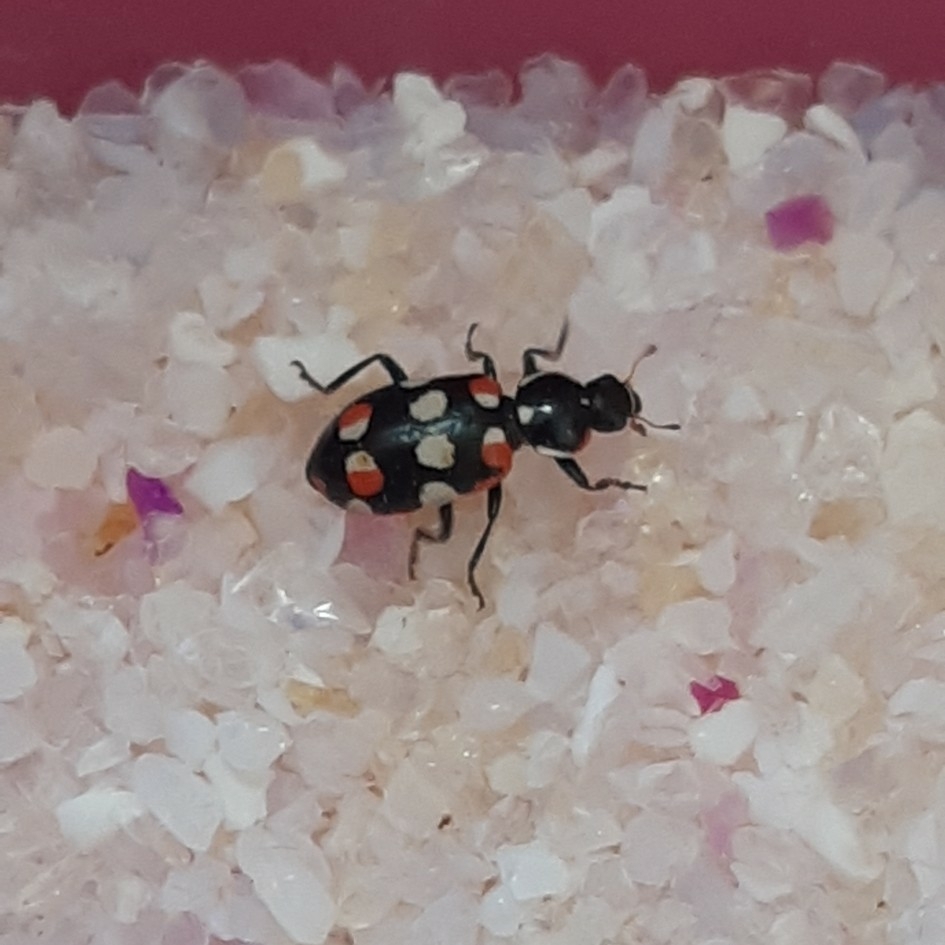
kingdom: Animalia
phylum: Arthropoda
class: Insecta
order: Coleoptera
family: Coccinellidae
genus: Eriopis
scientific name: Eriopis connexa
